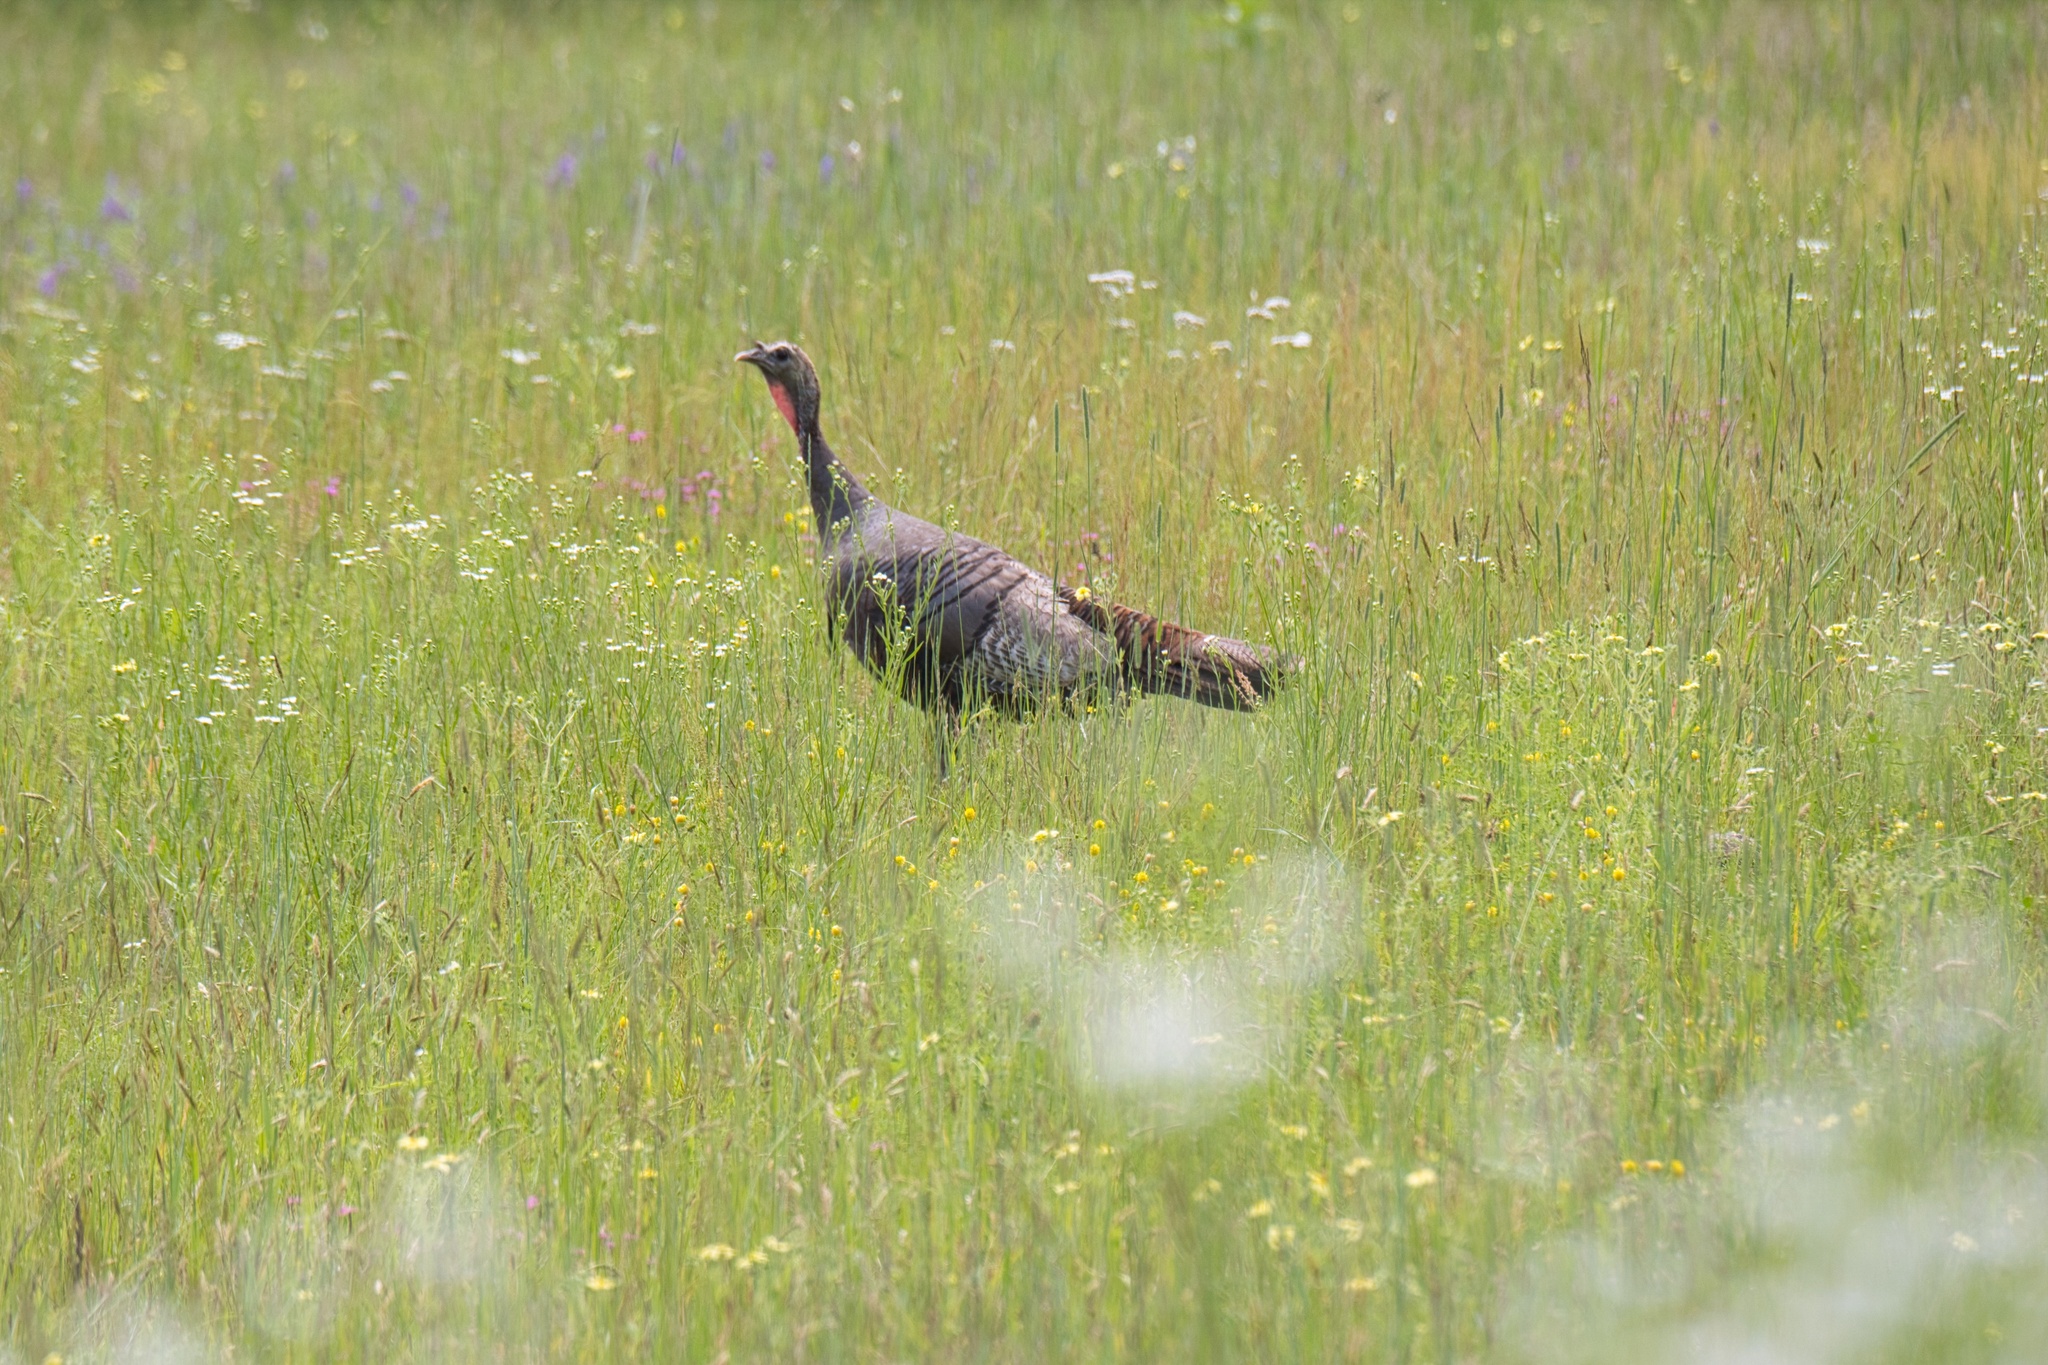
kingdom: Animalia
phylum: Chordata
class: Aves
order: Galliformes
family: Phasianidae
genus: Meleagris
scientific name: Meleagris gallopavo
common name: Wild turkey
